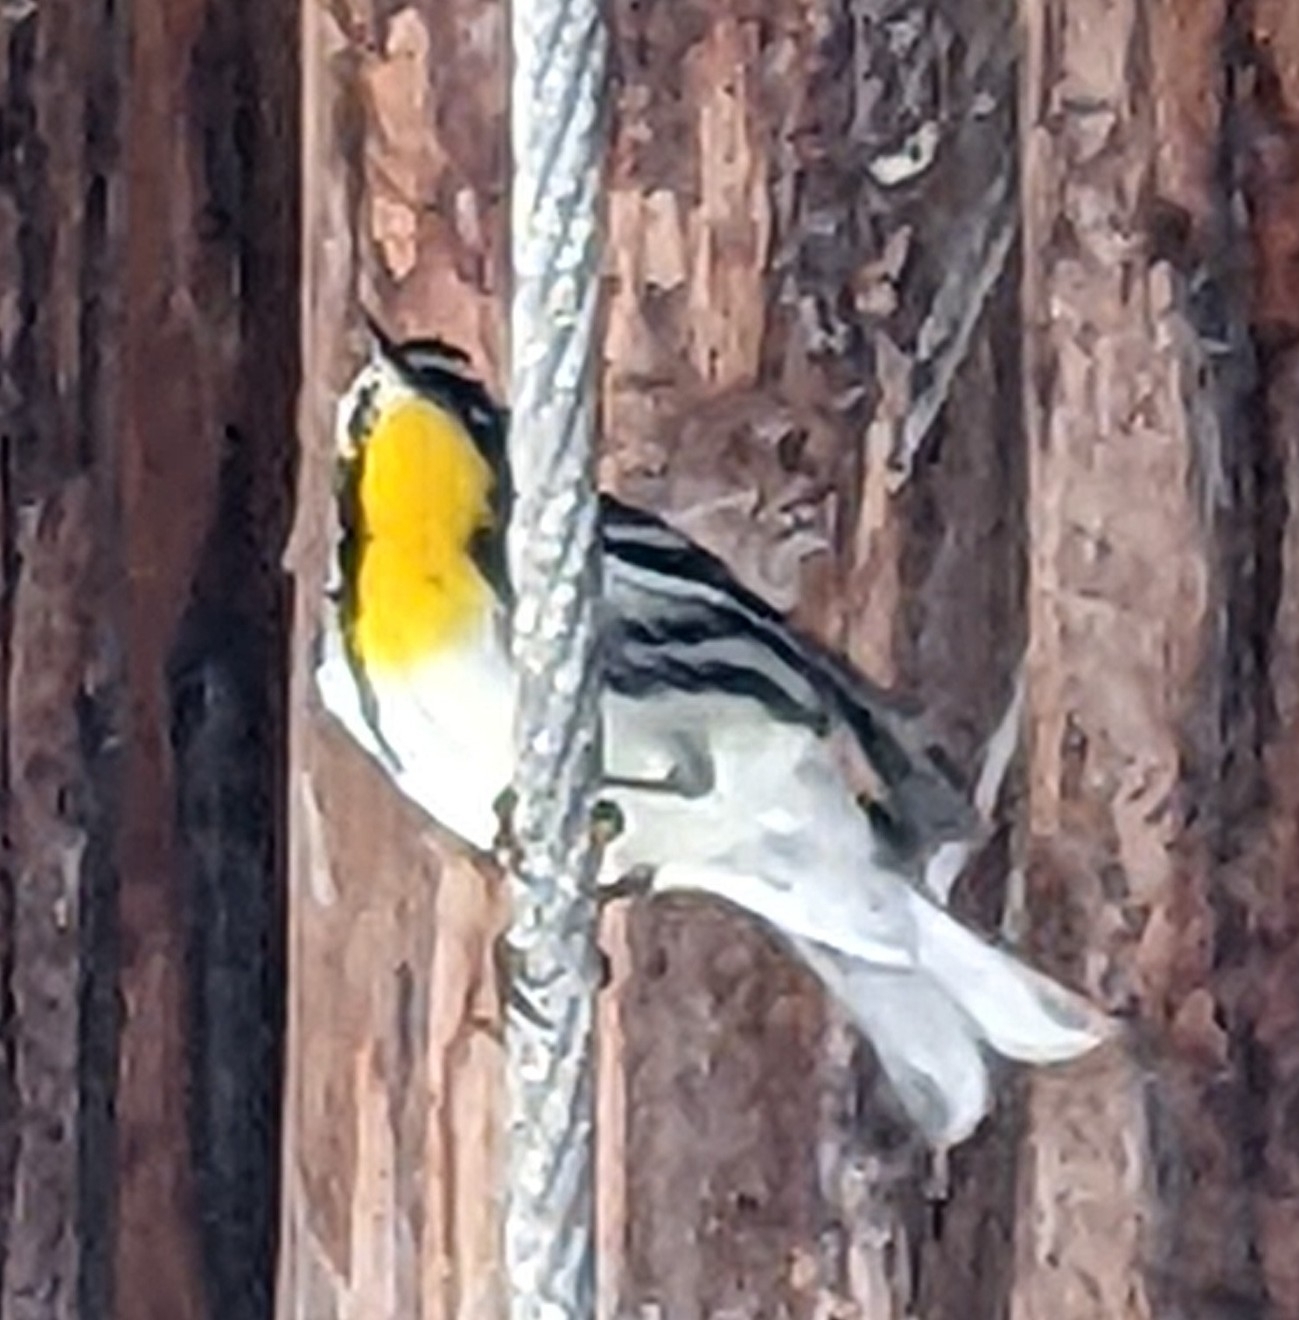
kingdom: Animalia
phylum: Chordata
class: Aves
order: Passeriformes
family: Parulidae
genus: Setophaga
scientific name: Setophaga dominica
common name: Yellow-throated warbler
